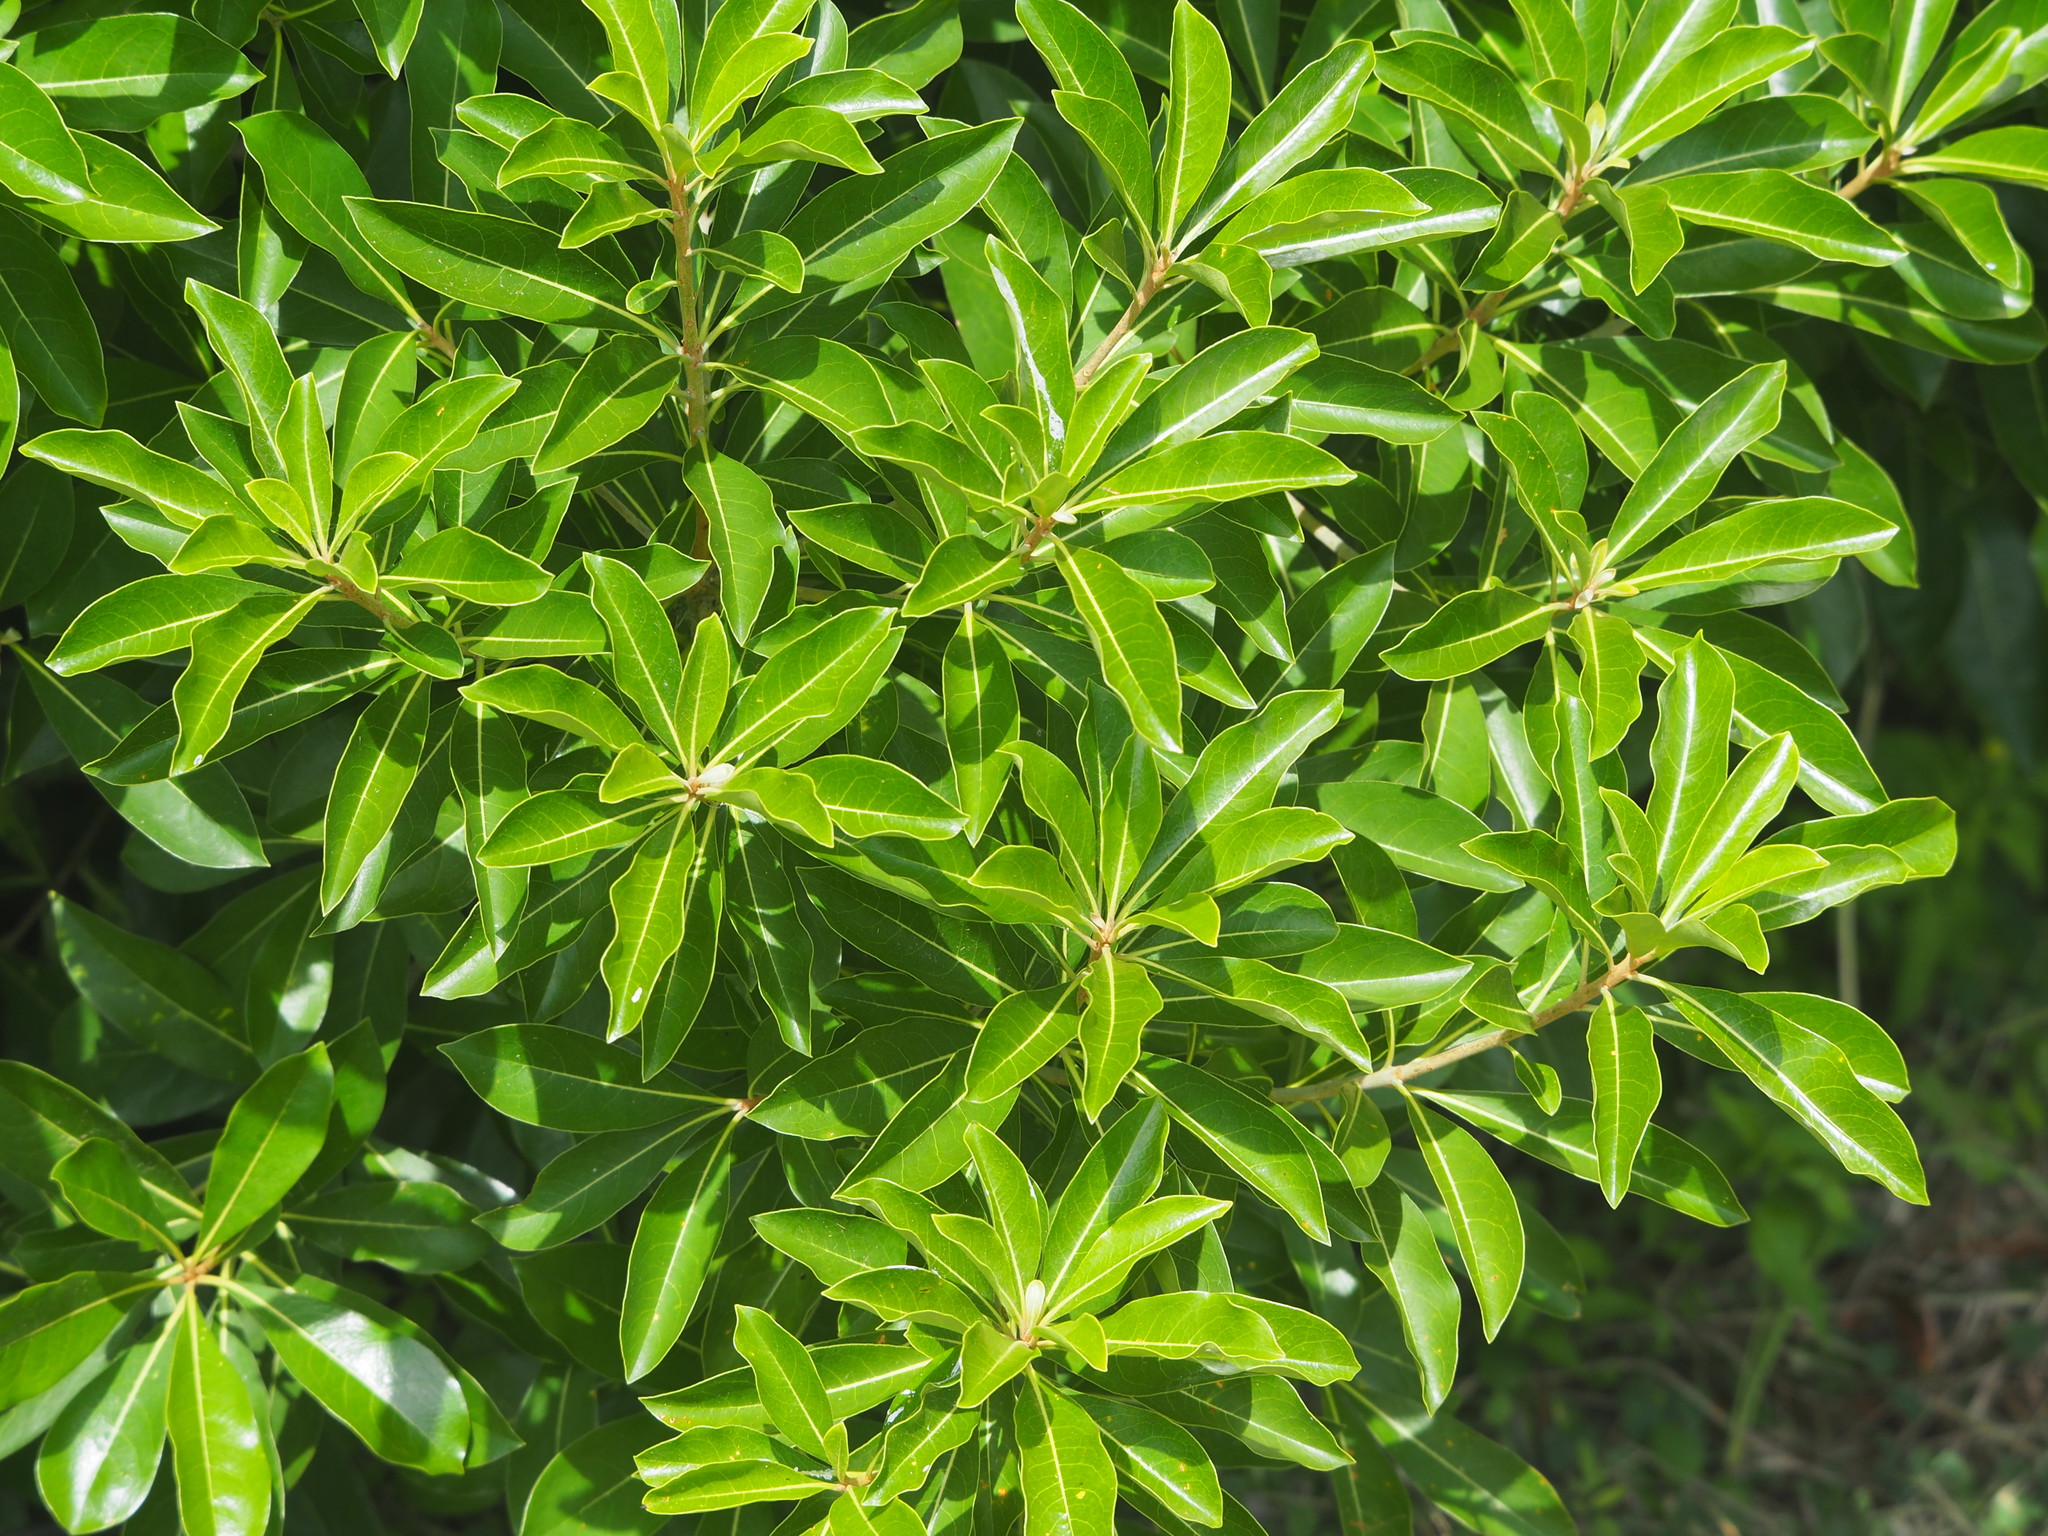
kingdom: Plantae
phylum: Tracheophyta
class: Magnoliopsida
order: Apiales
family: Pittosporaceae
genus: Pittosporum
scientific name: Pittosporum pentandrum
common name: Taiwanese cheesewood
